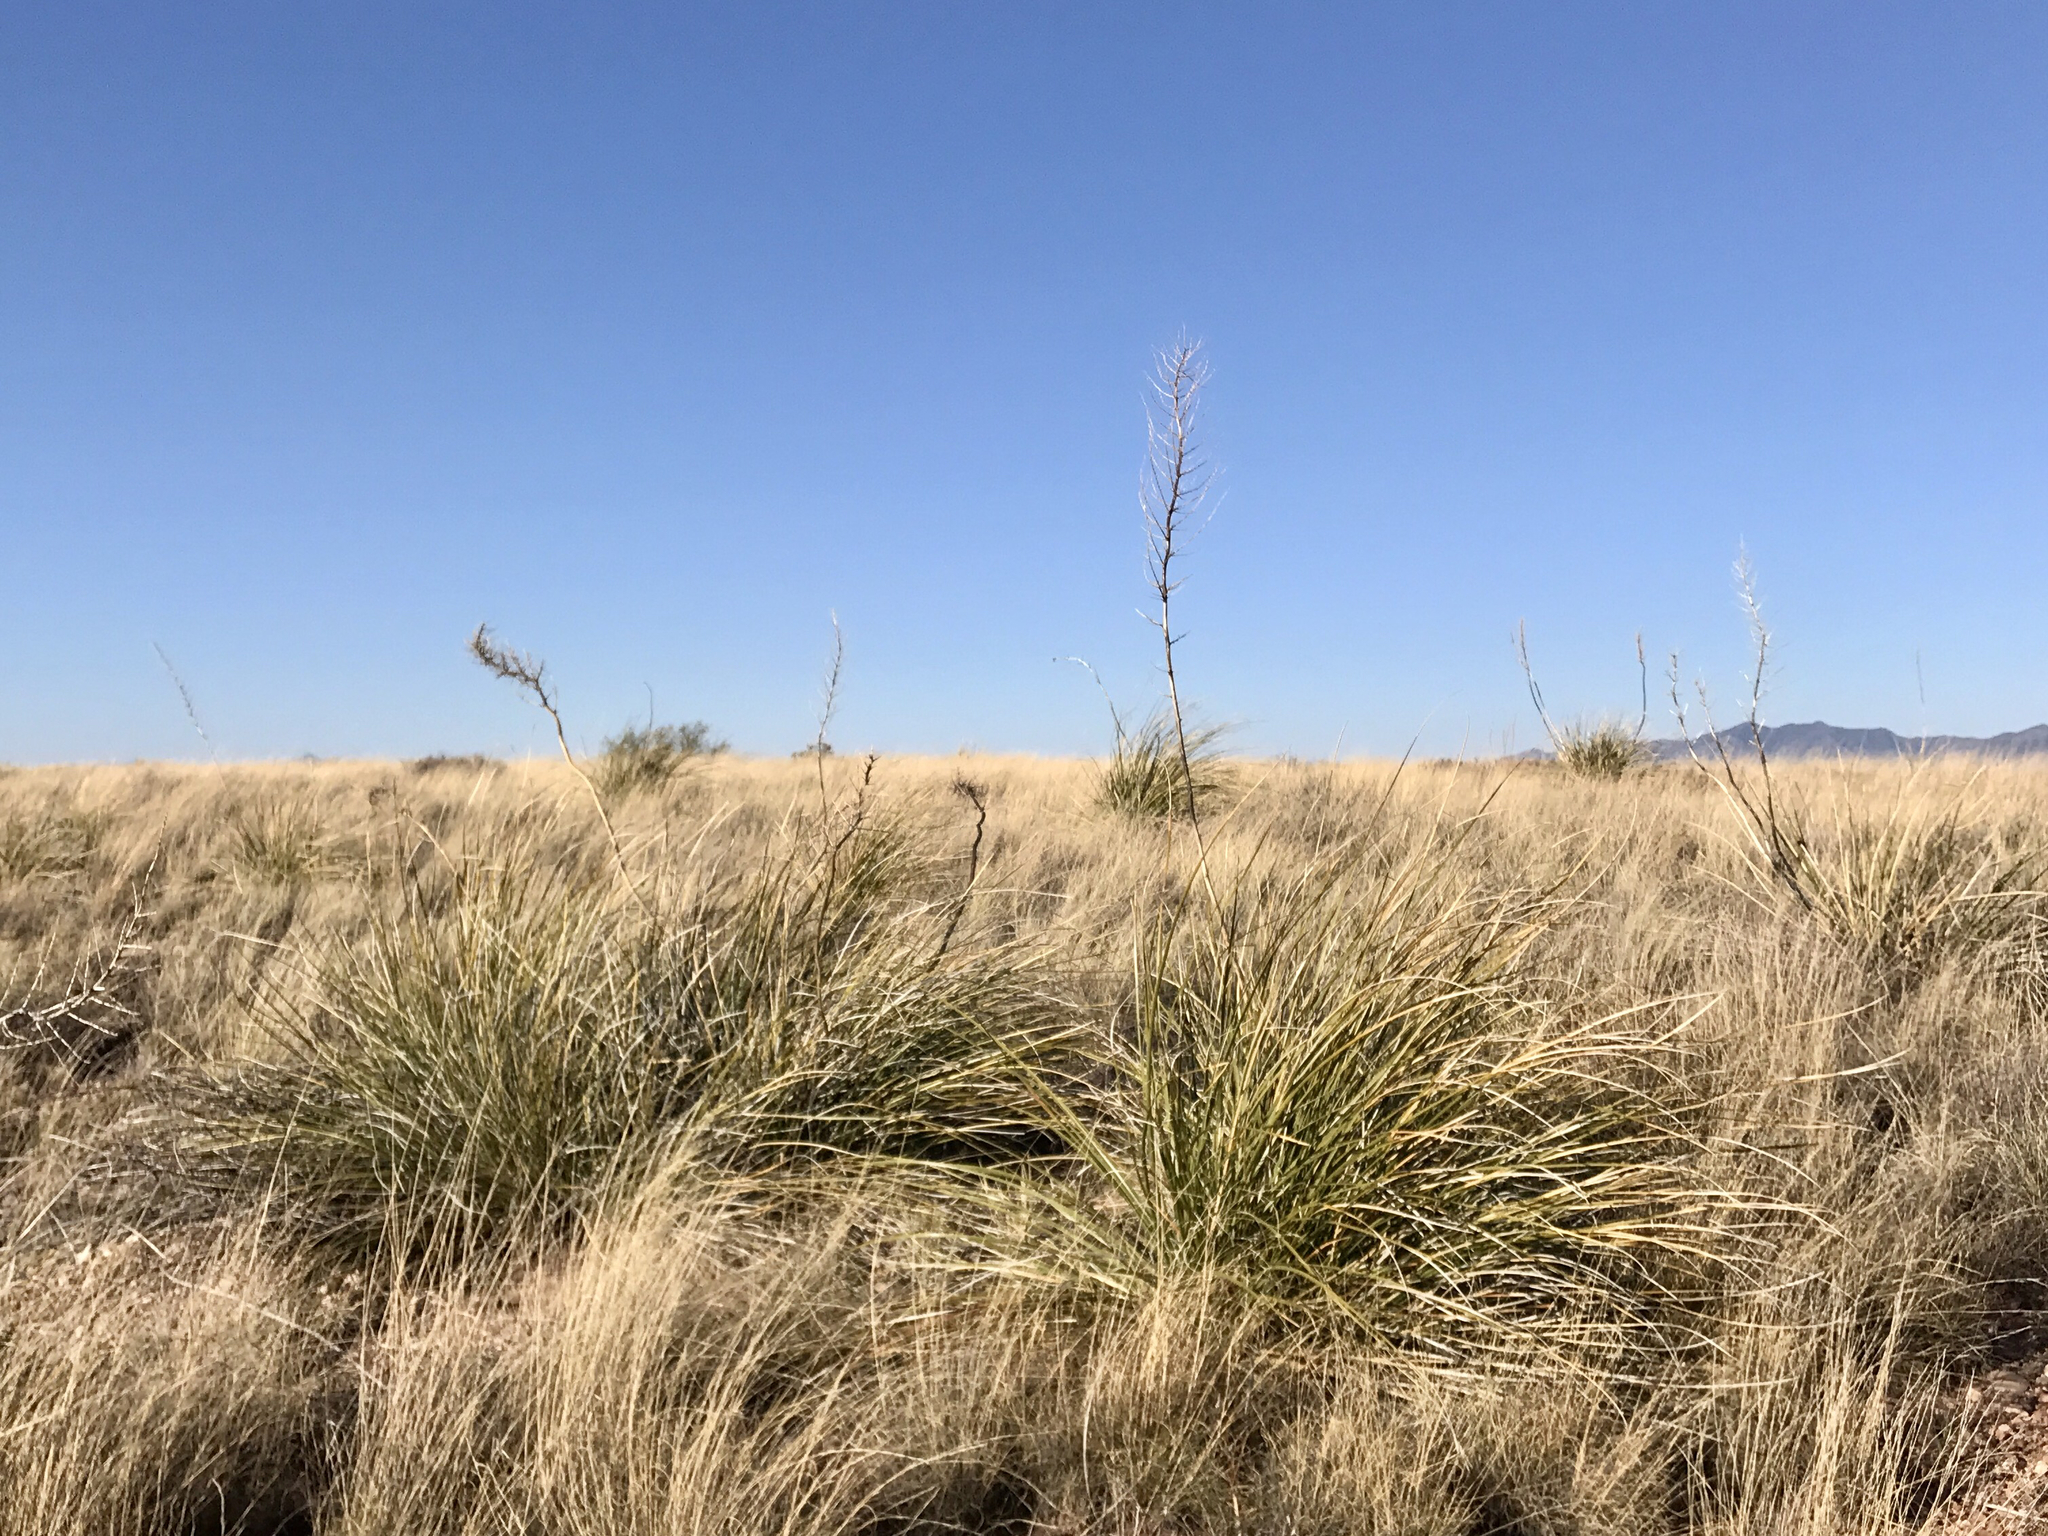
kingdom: Plantae
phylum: Tracheophyta
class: Liliopsida
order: Asparagales
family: Asparagaceae
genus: Nolina
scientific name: Nolina microcarpa
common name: Bear-grass
